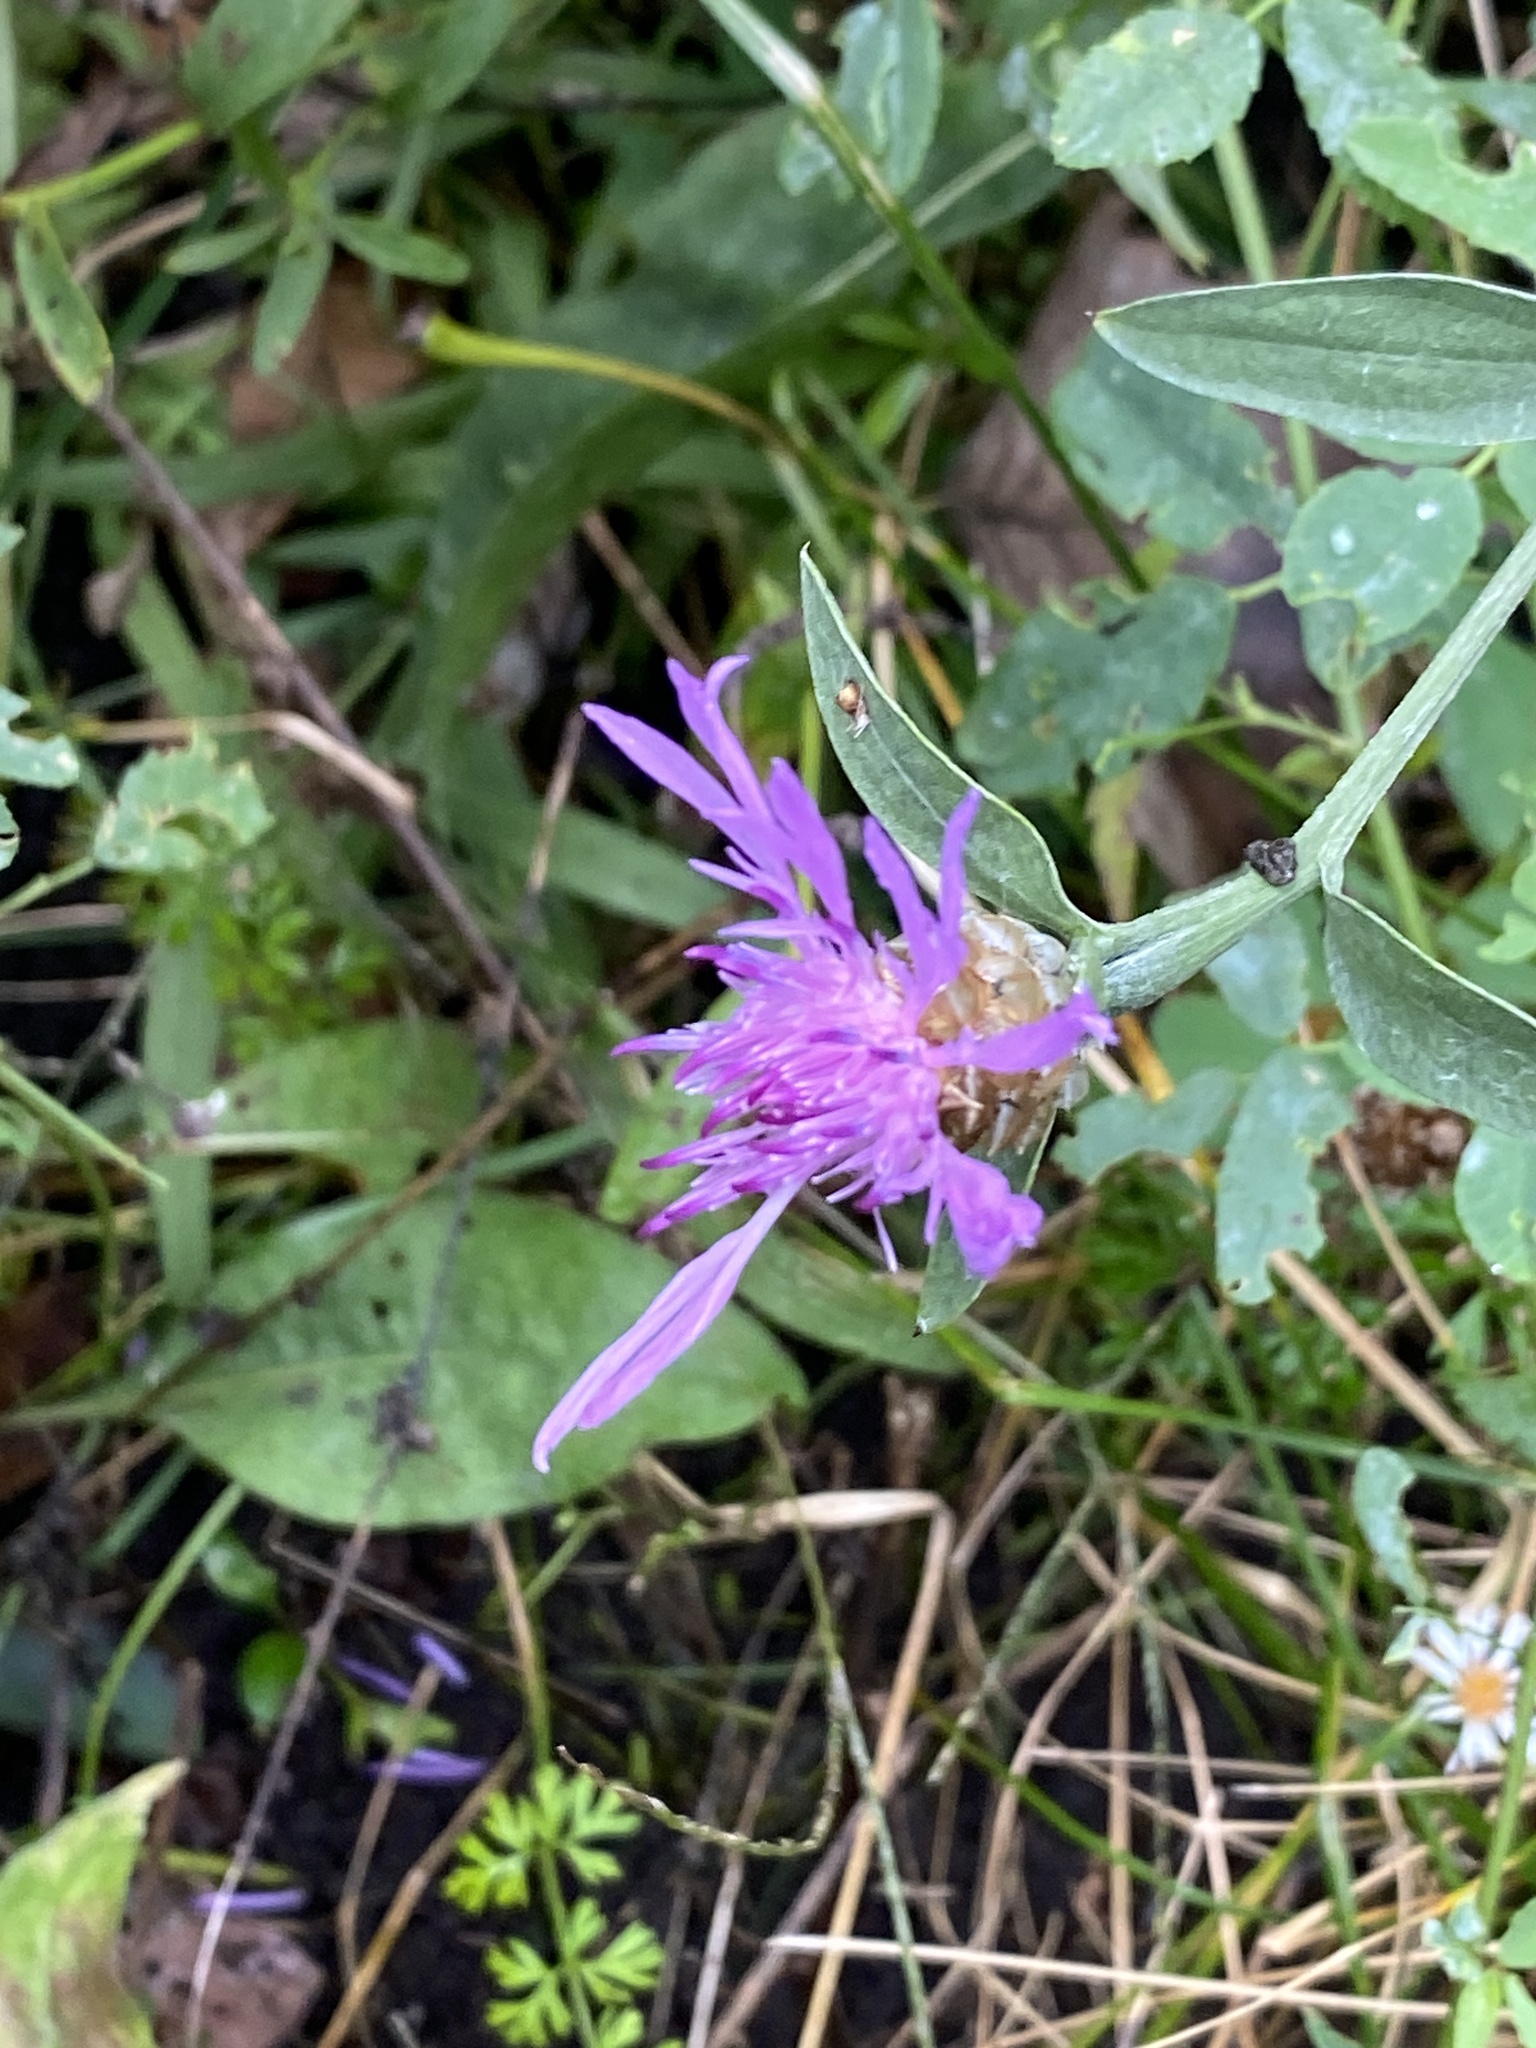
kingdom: Plantae
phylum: Tracheophyta
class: Magnoliopsida
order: Asterales
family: Asteraceae
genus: Centaurea
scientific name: Centaurea jacea
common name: Brown knapweed
